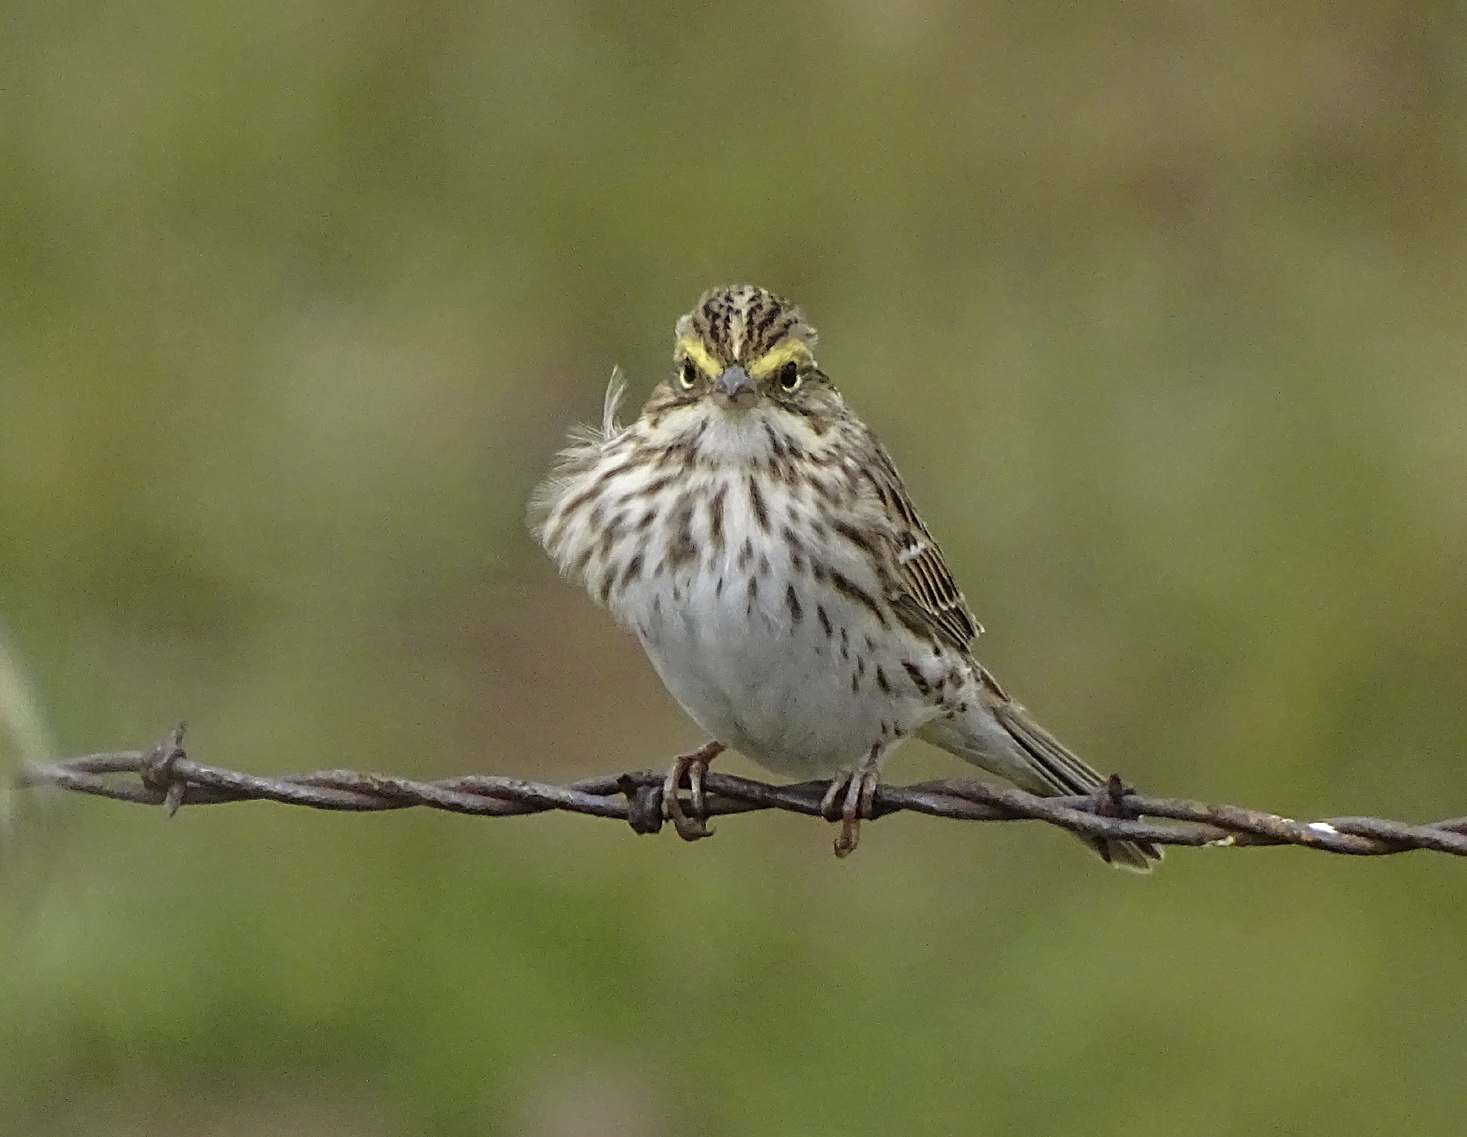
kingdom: Animalia
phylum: Chordata
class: Aves
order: Passeriformes
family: Passerellidae
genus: Passerculus
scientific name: Passerculus sandwichensis
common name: Savannah sparrow
